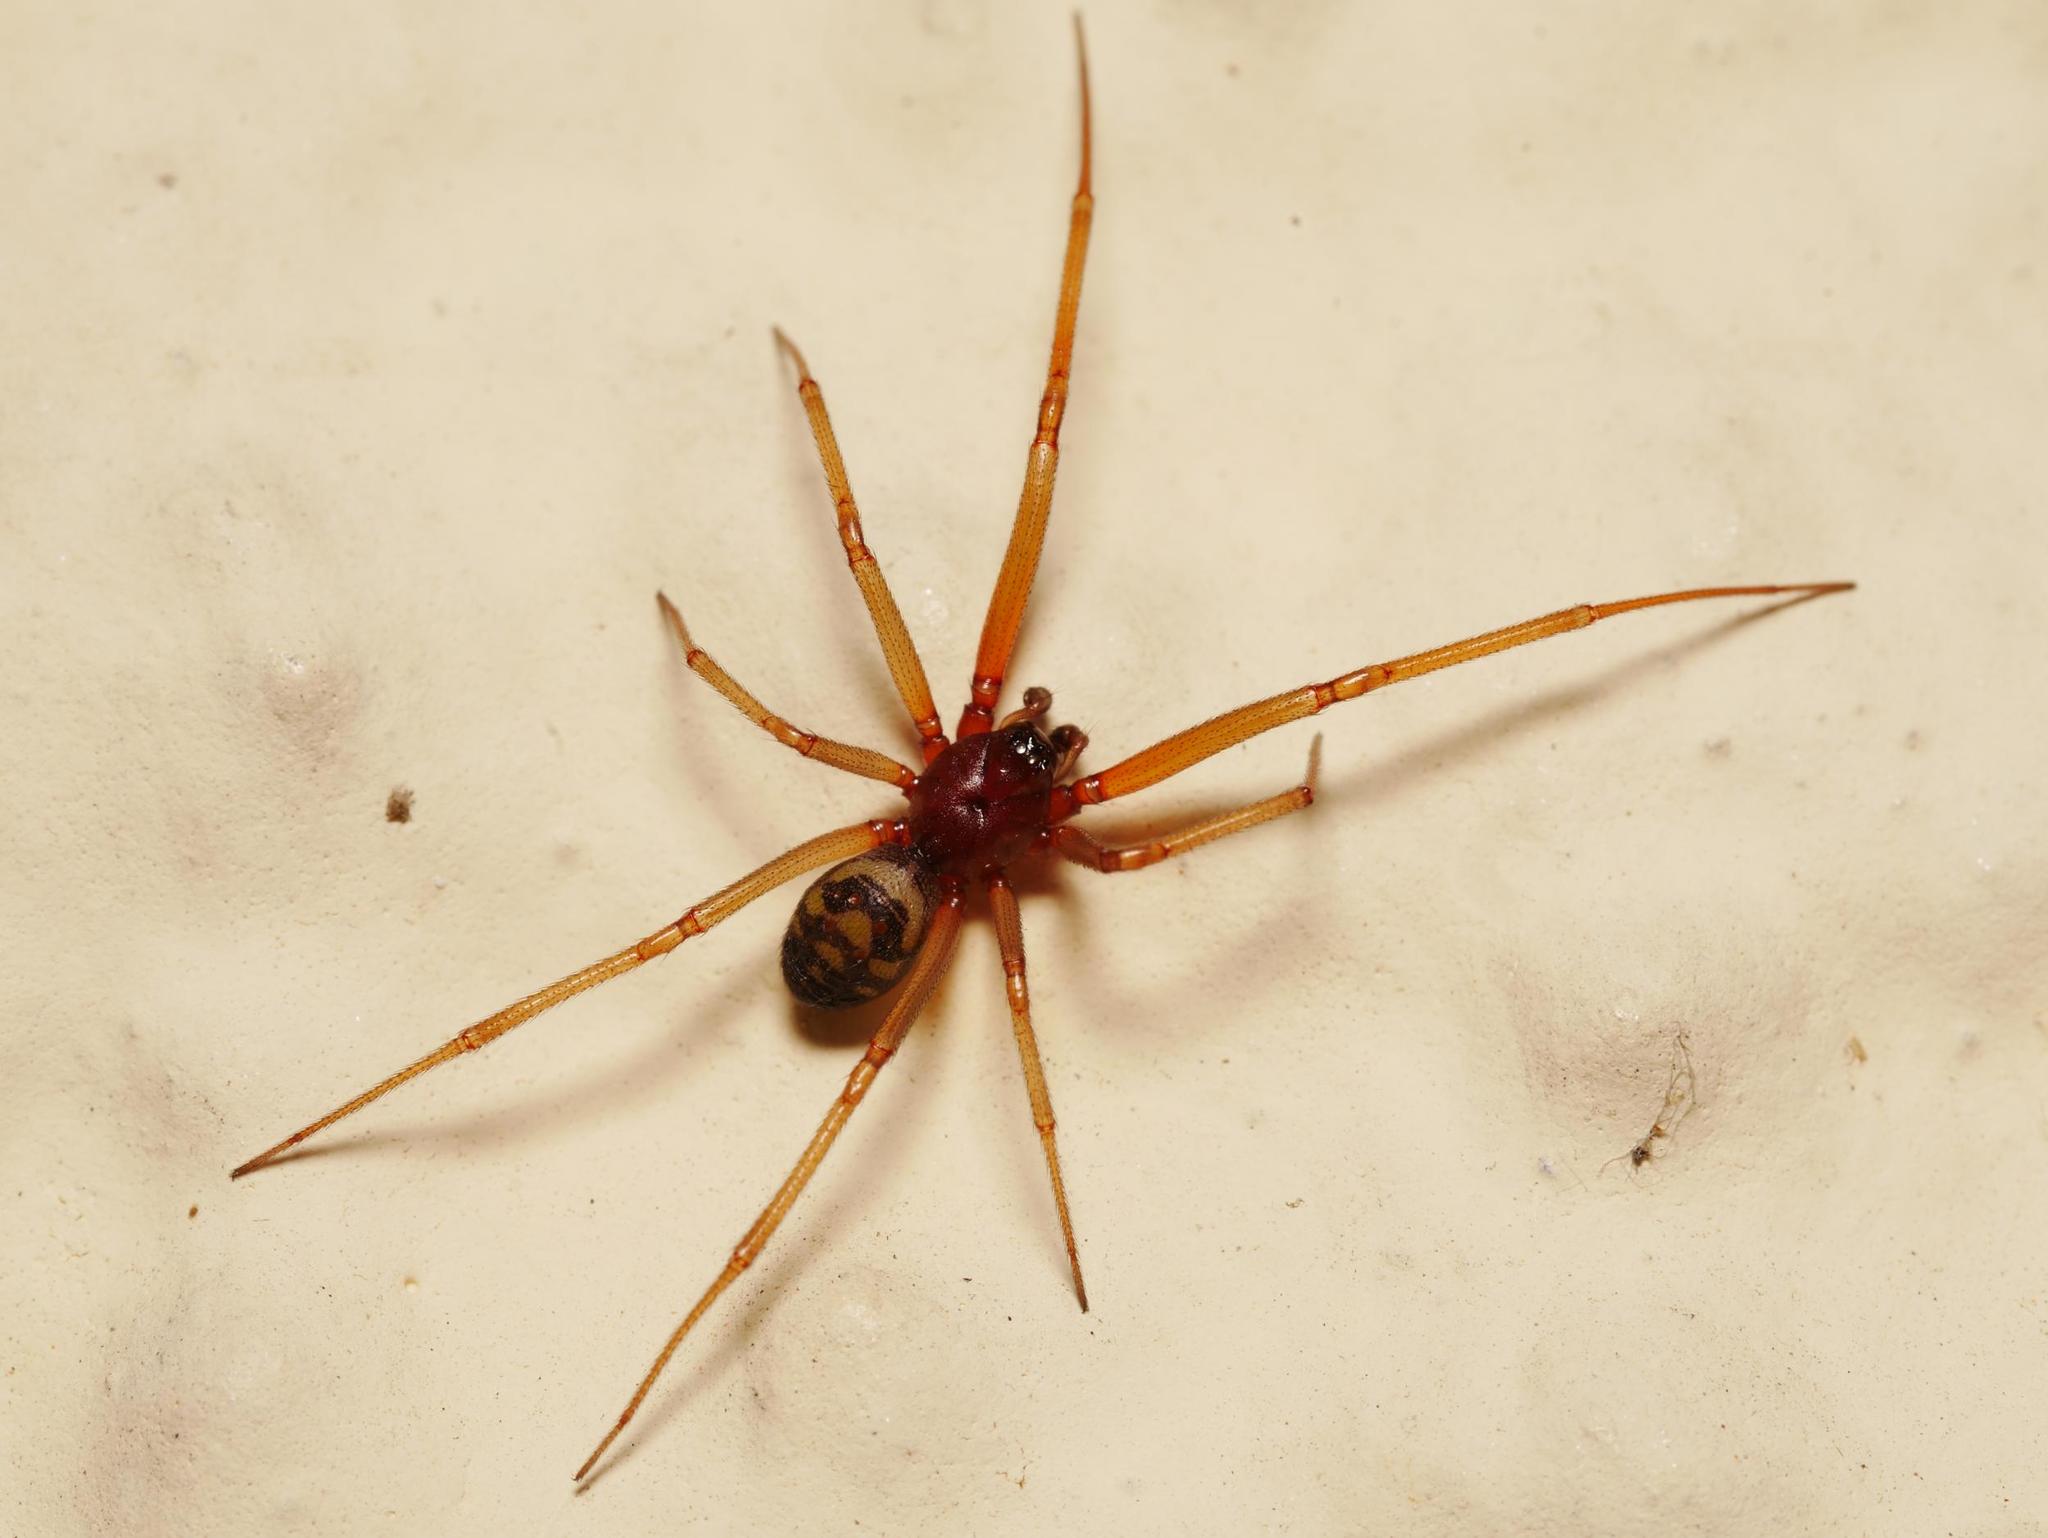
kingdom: Animalia
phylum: Arthropoda
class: Arachnida
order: Araneae
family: Theridiidae
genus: Steatoda
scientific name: Steatoda grossa
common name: False black widow
